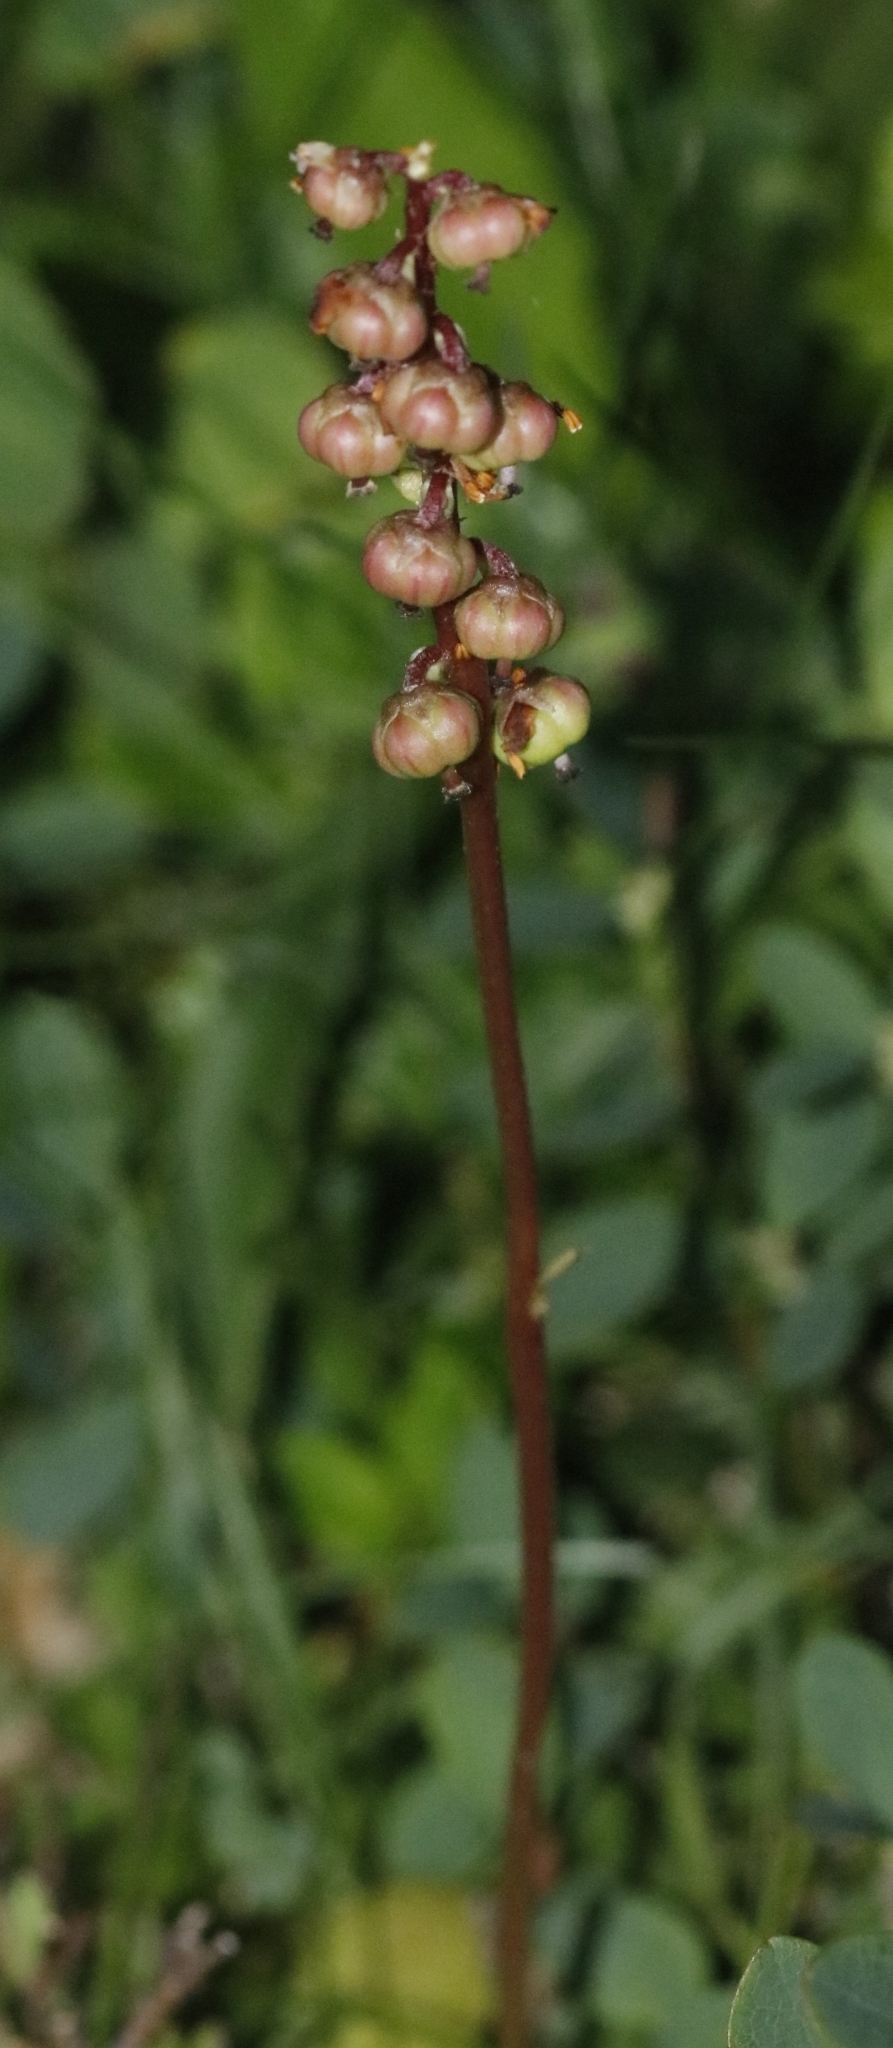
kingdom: Plantae
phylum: Tracheophyta
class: Magnoliopsida
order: Ericales
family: Ericaceae
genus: Pyrola
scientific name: Pyrola minor
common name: Common wintergreen
